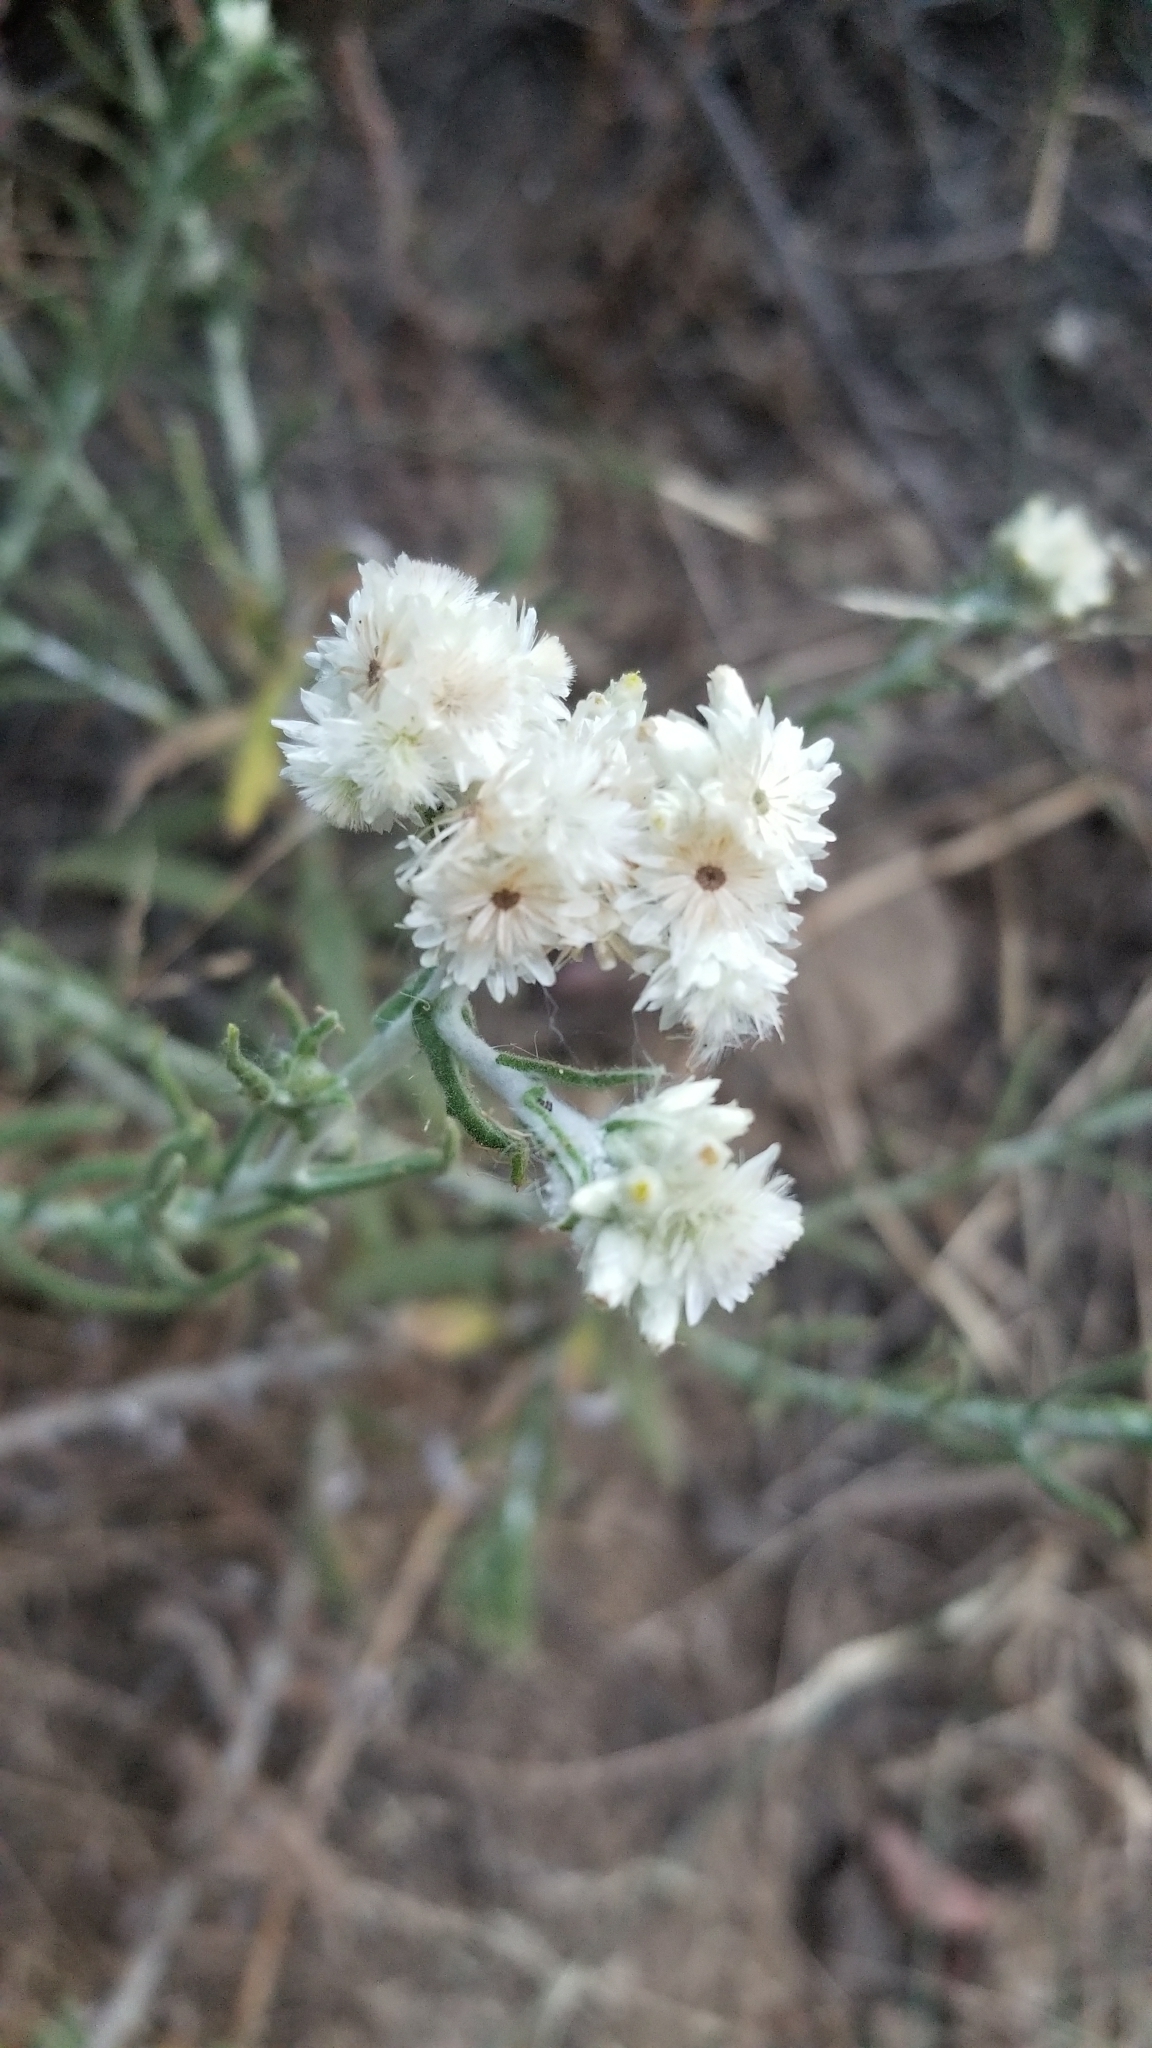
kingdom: Plantae
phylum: Tracheophyta
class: Magnoliopsida
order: Asterales
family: Asteraceae
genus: Anaphalis
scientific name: Anaphalis margaritacea
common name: Pearly everlasting
